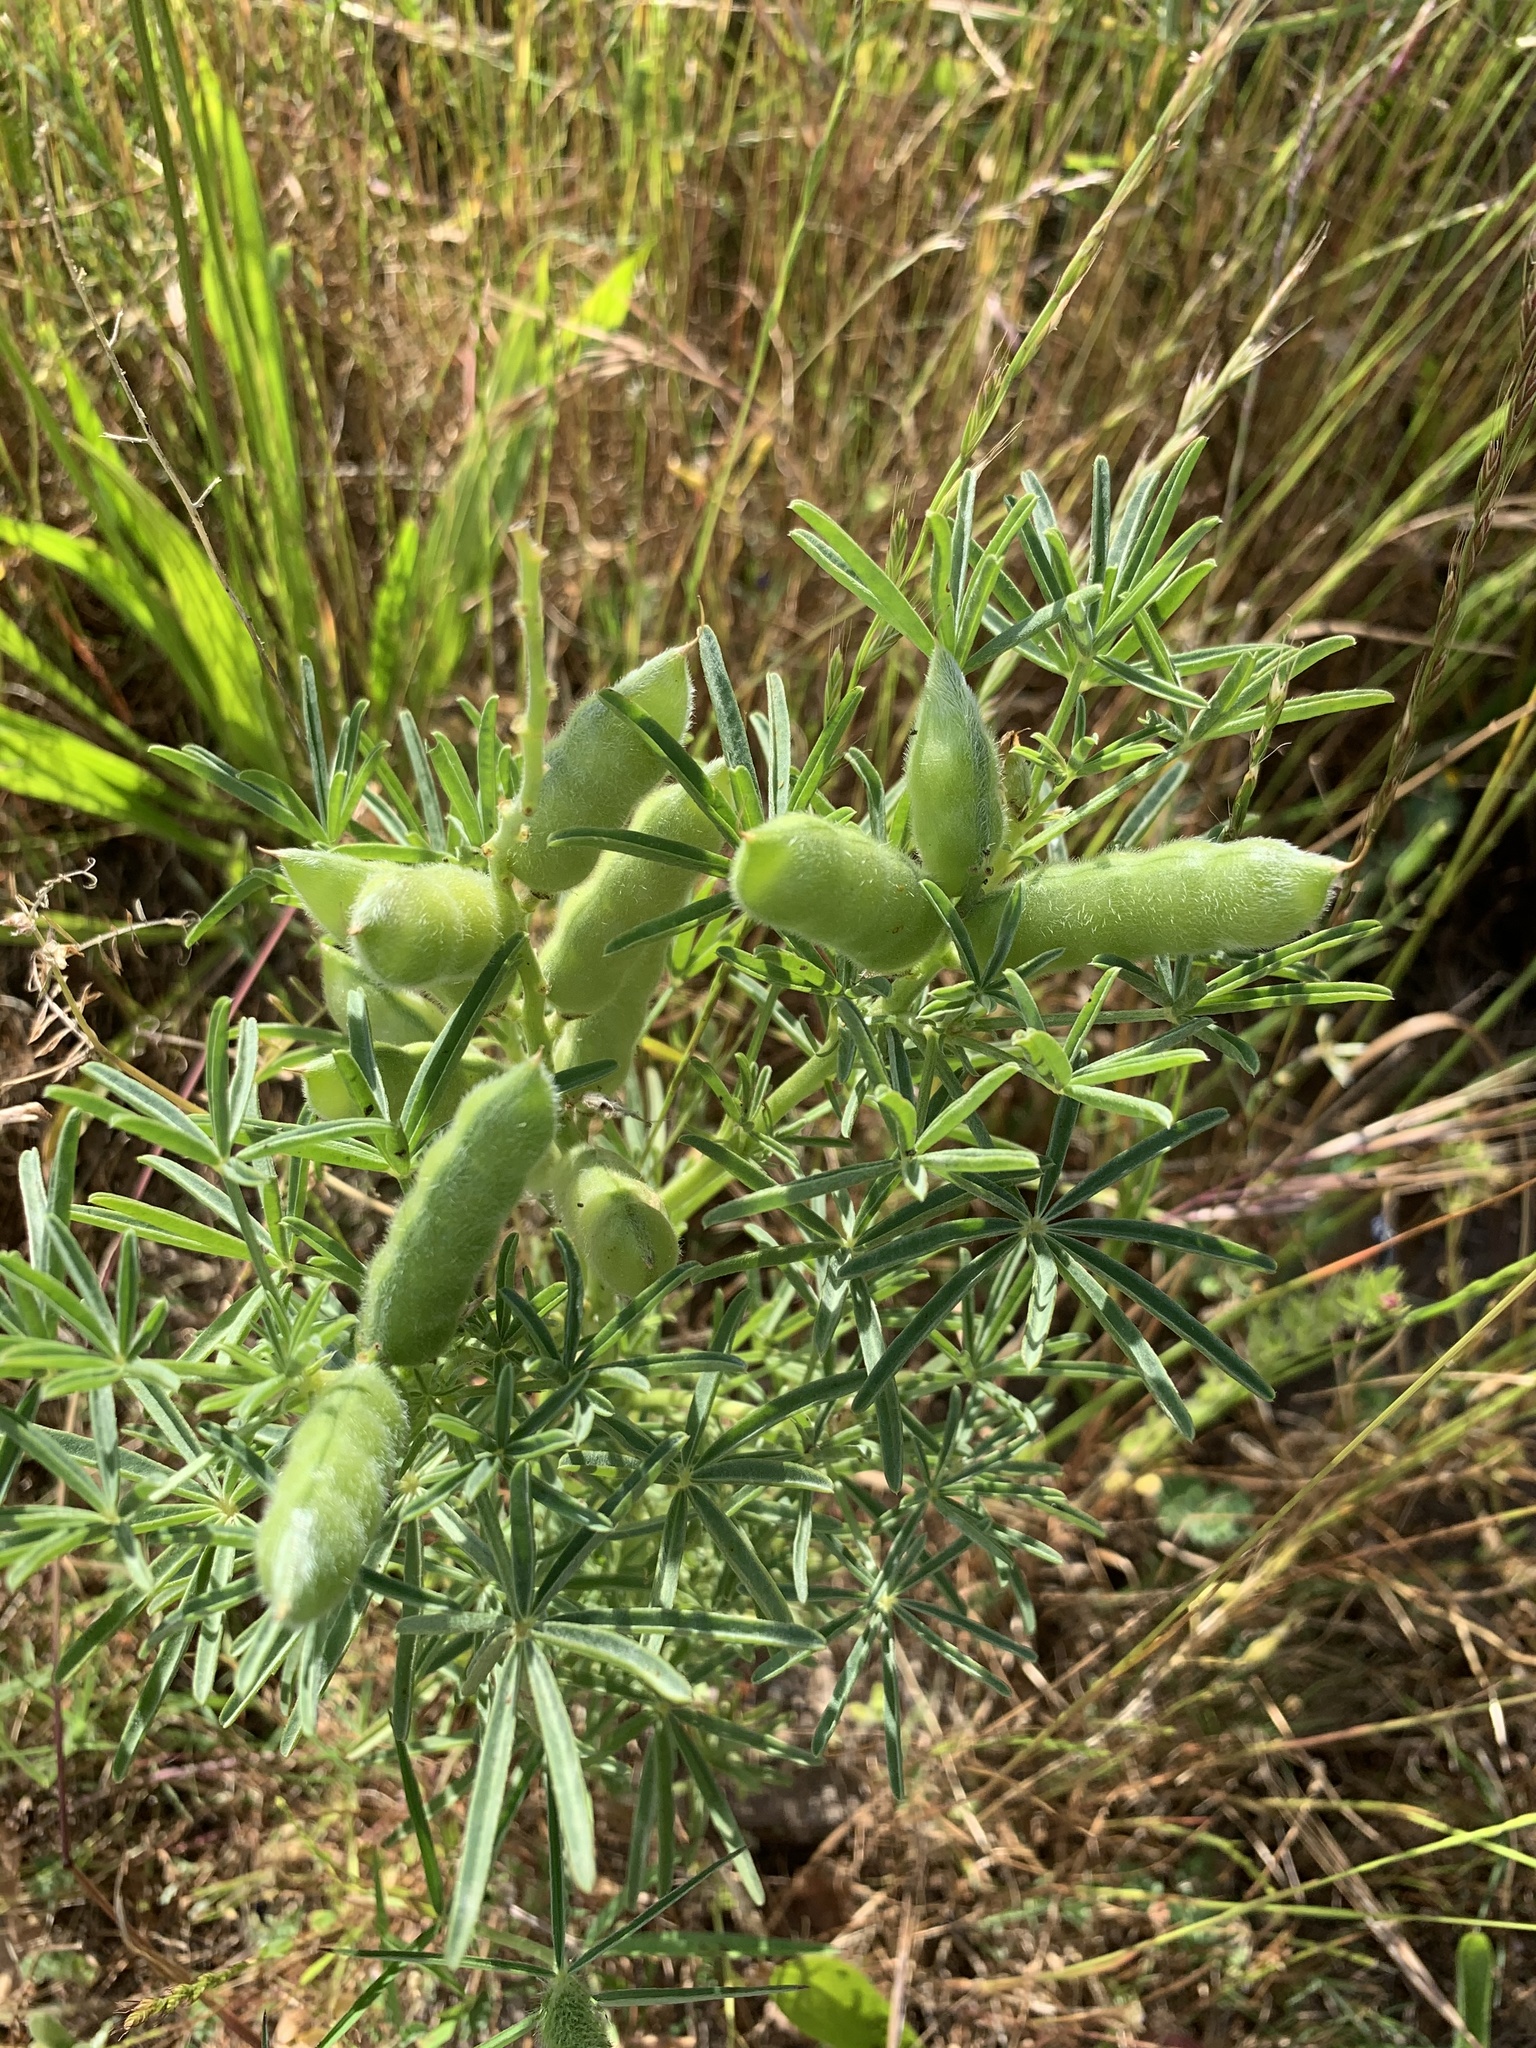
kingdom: Plantae
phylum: Tracheophyta
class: Magnoliopsida
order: Fabales
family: Fabaceae
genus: Lupinus
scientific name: Lupinus angustifolius
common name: Narrow-leaved lupin
